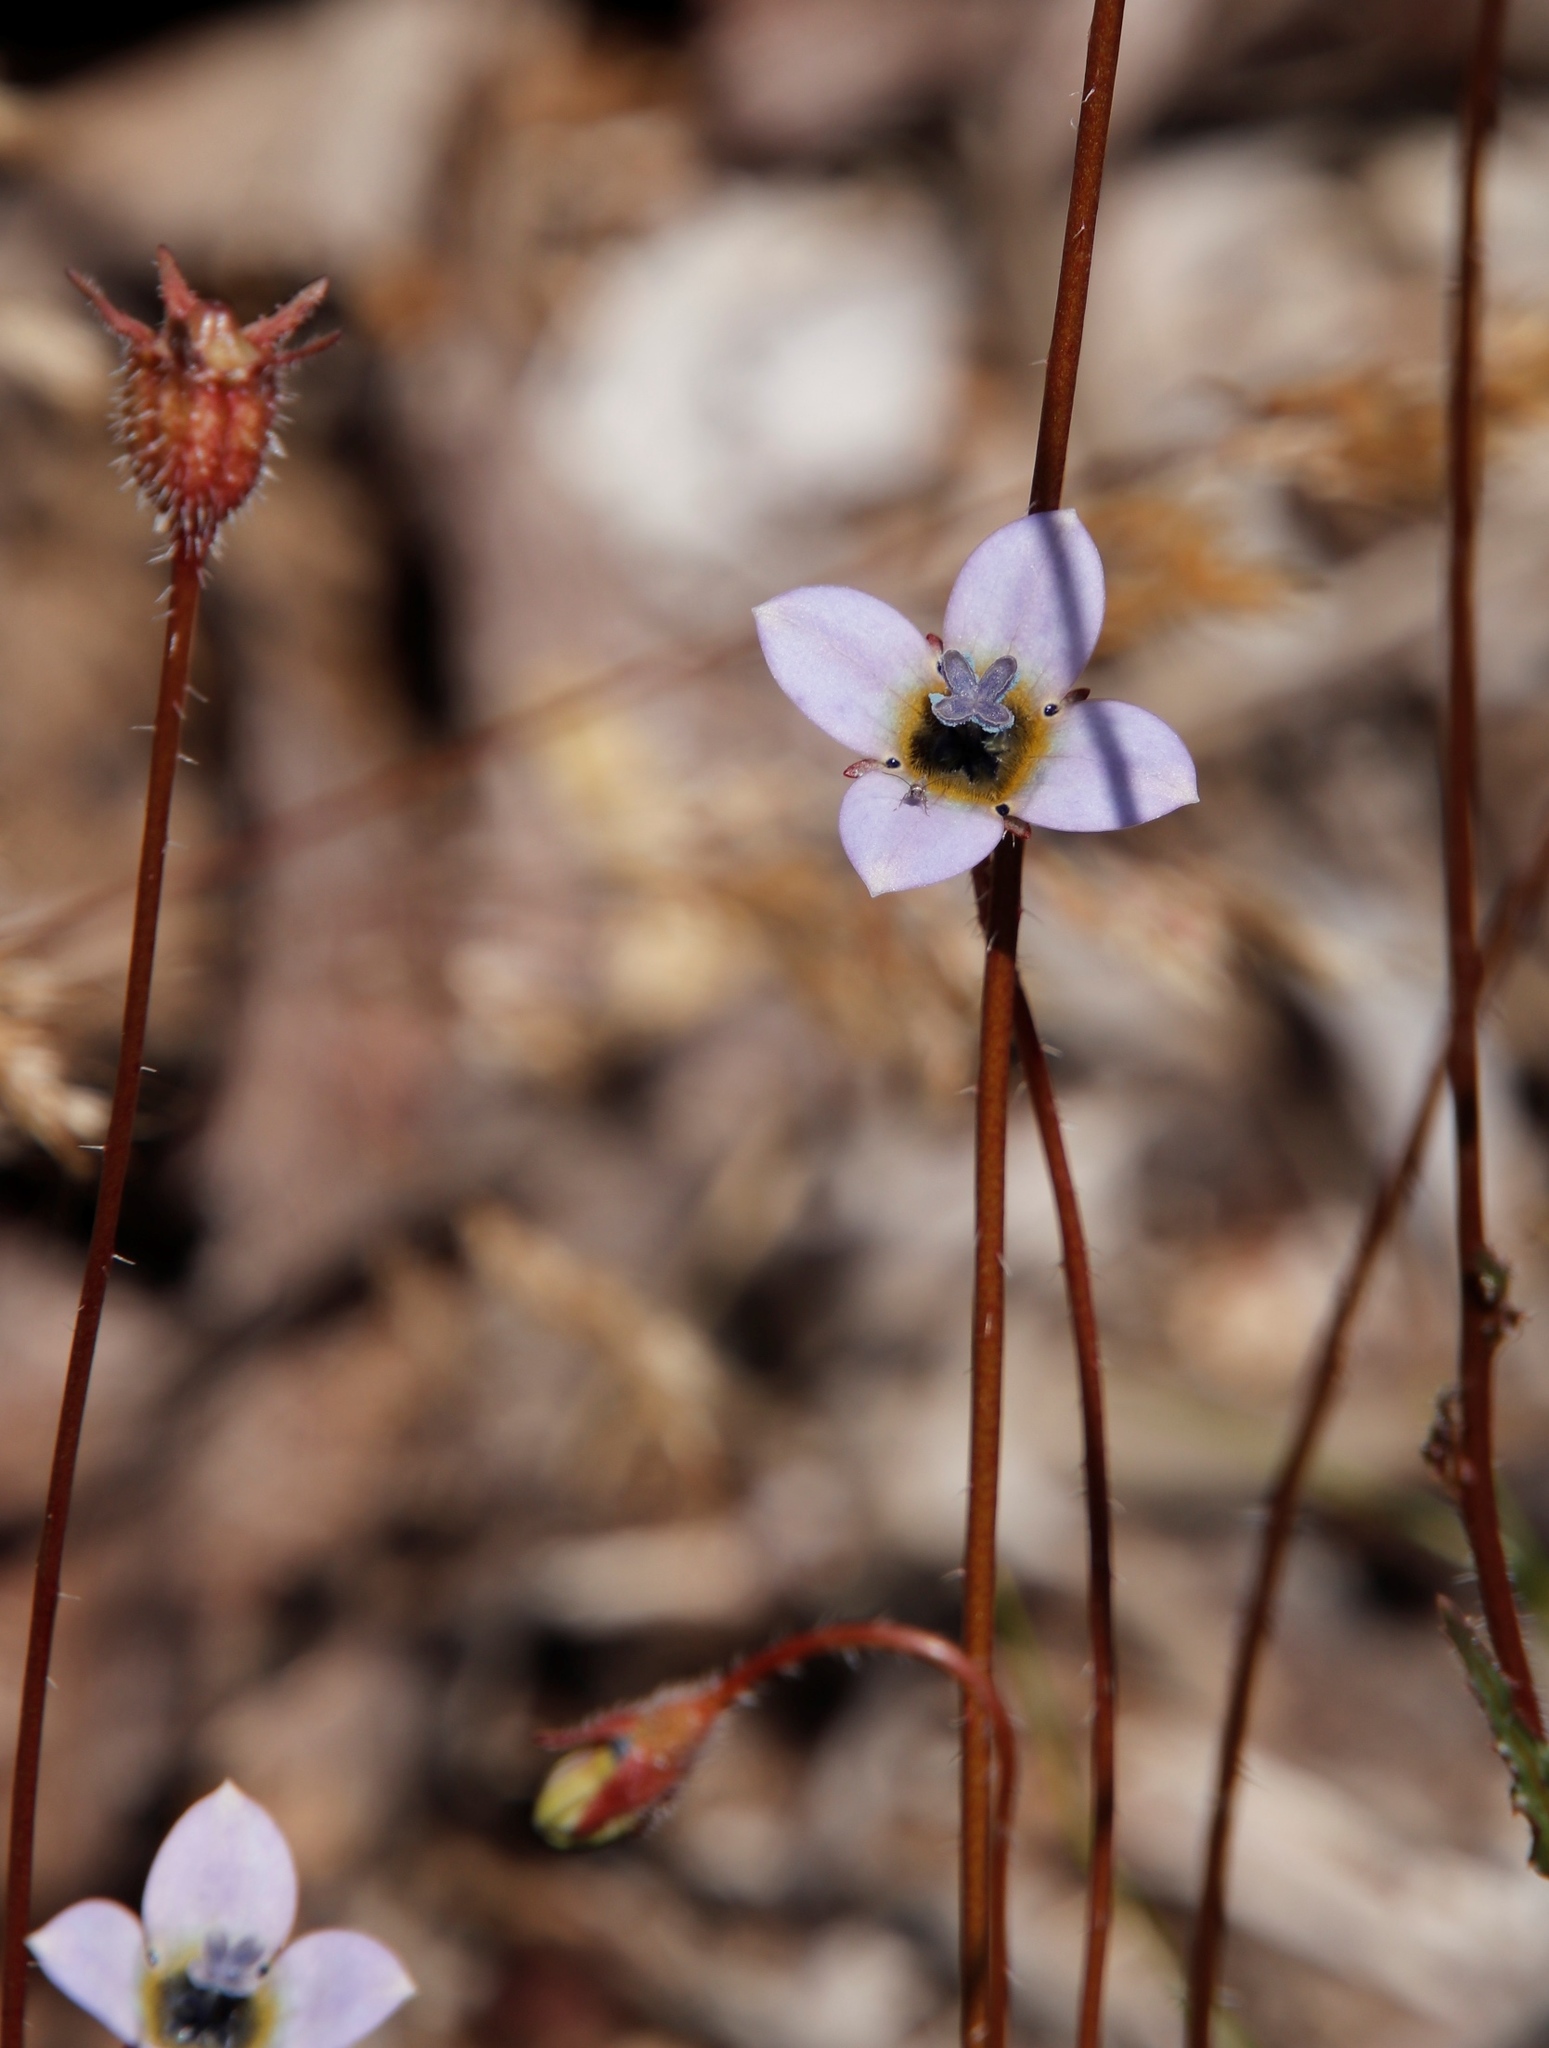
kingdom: Plantae
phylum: Tracheophyta
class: Magnoliopsida
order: Asterales
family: Campanulaceae
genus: Wahlenbergia
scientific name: Wahlenbergia capensis
